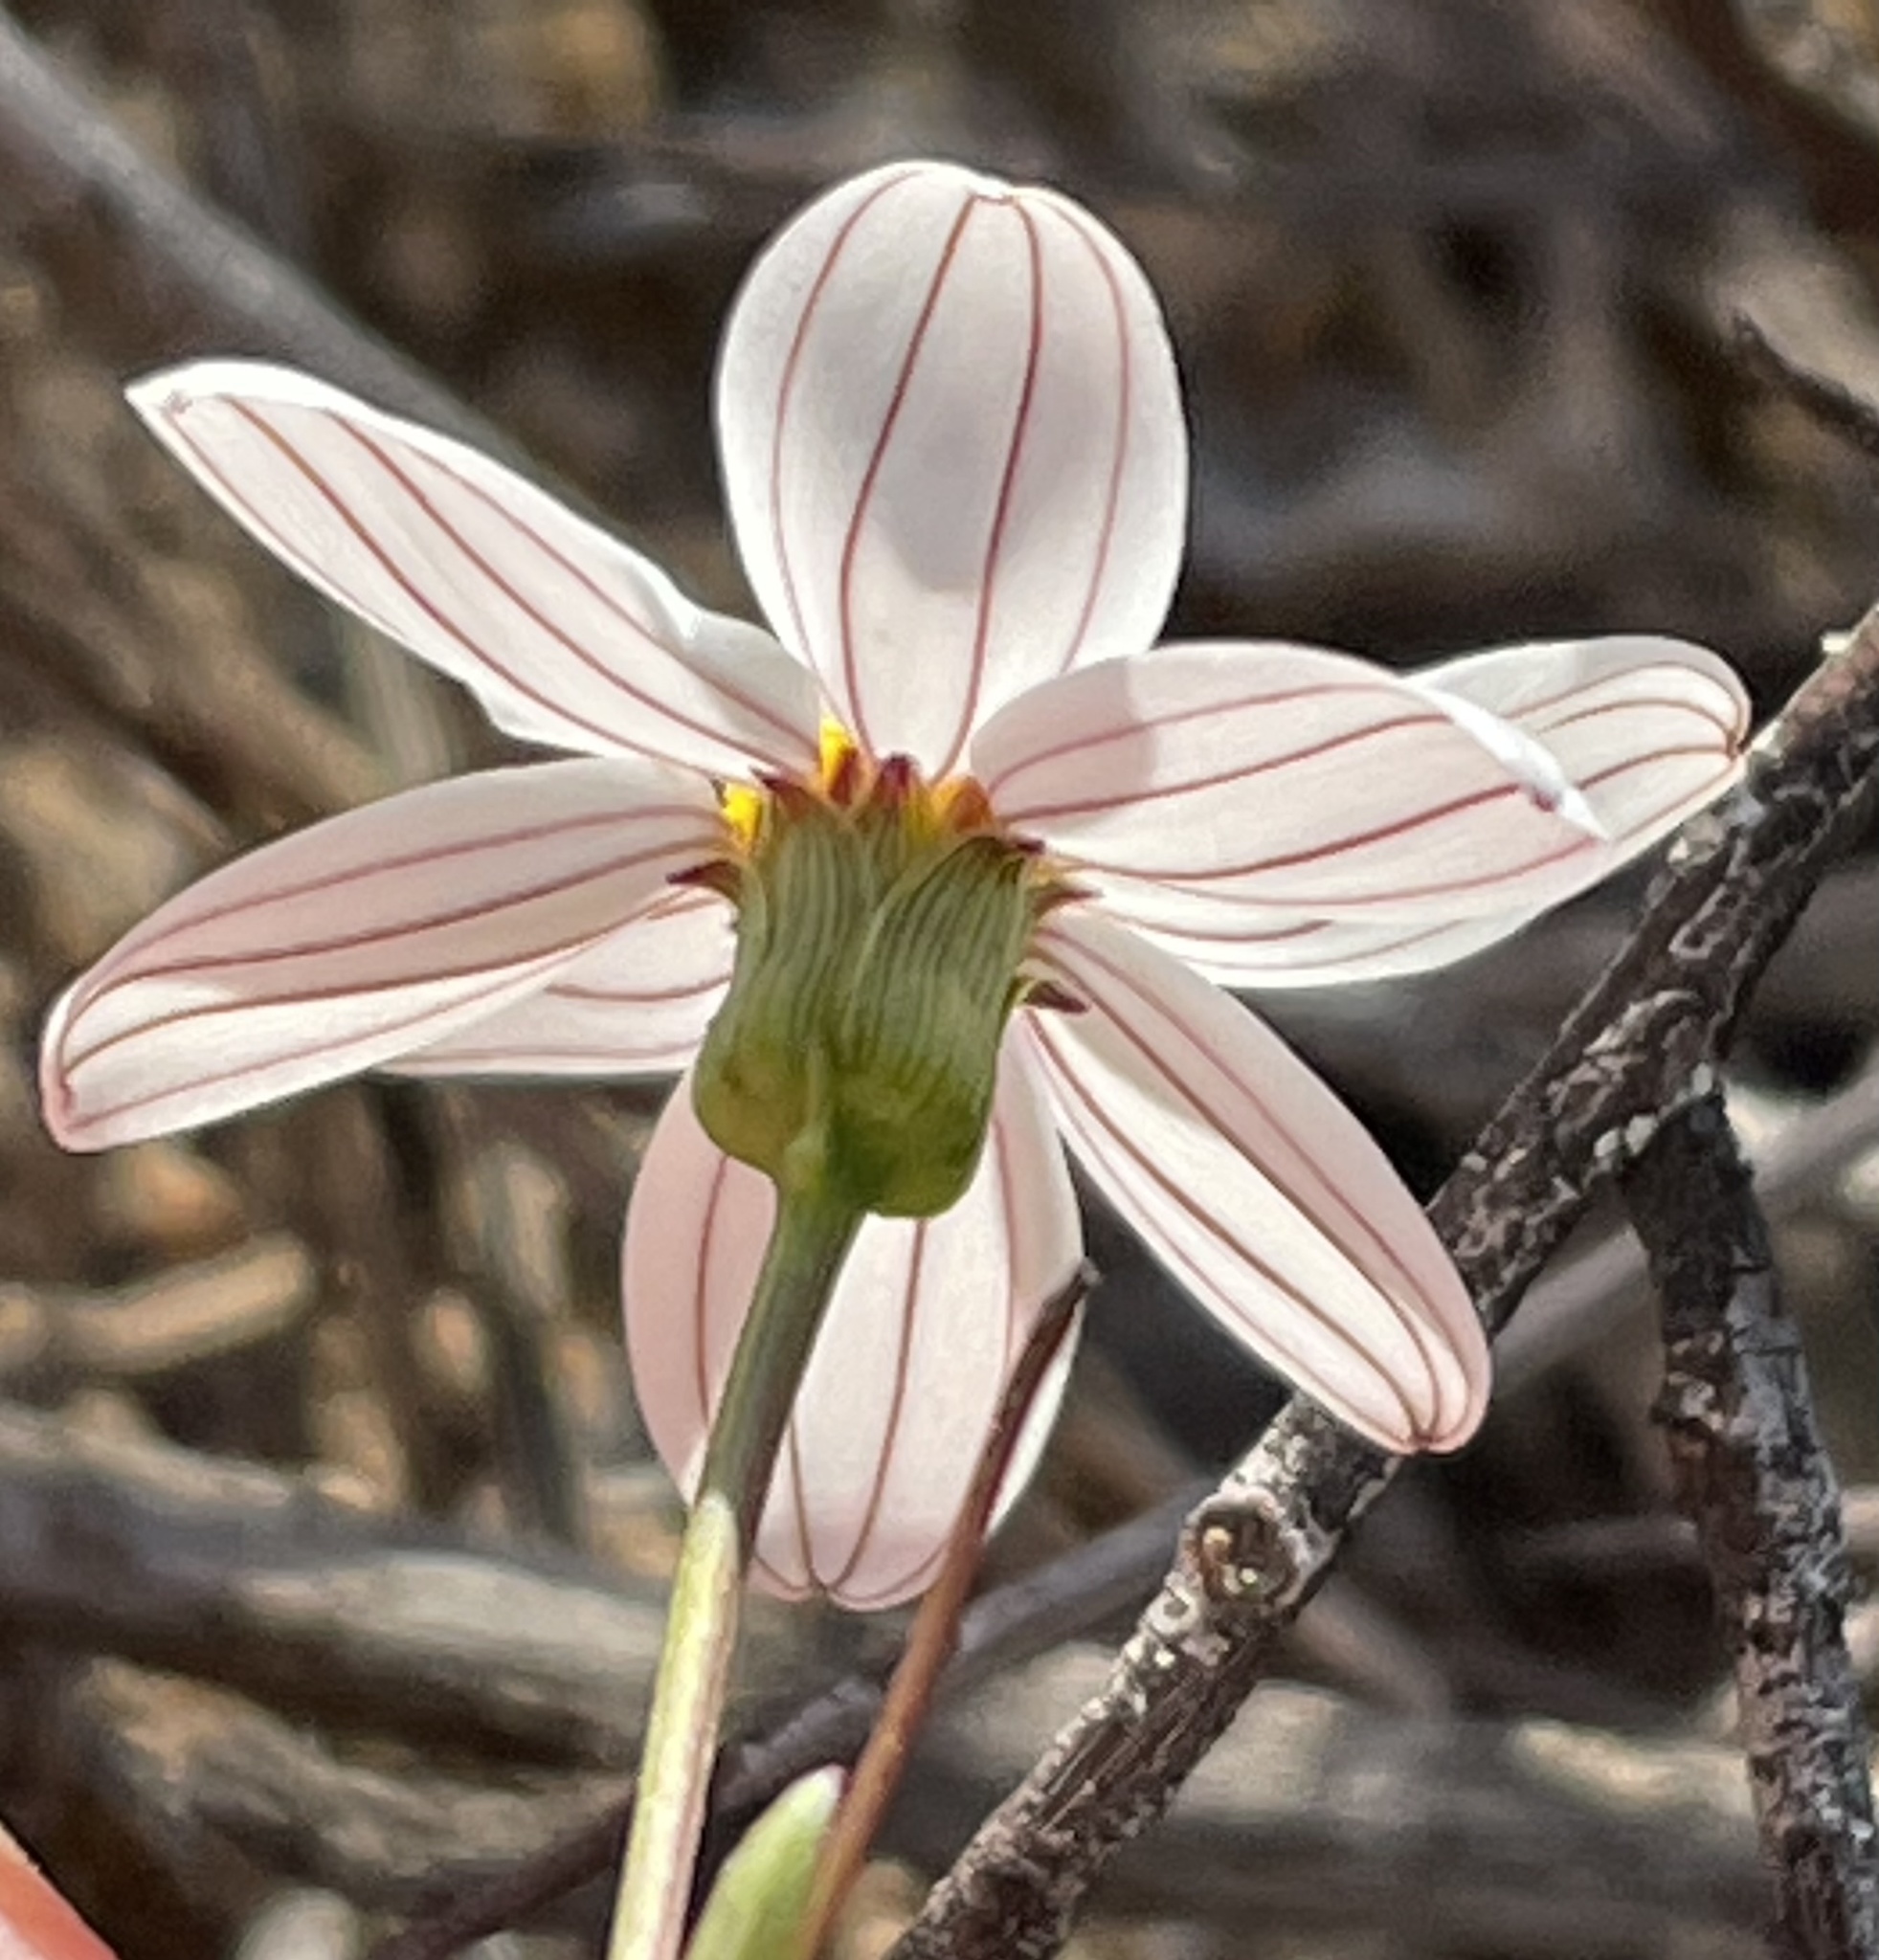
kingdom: Plantae
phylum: Tracheophyta
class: Magnoliopsida
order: Asterales
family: Asteraceae
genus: Coreocarpus
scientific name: Coreocarpus parthenioides
